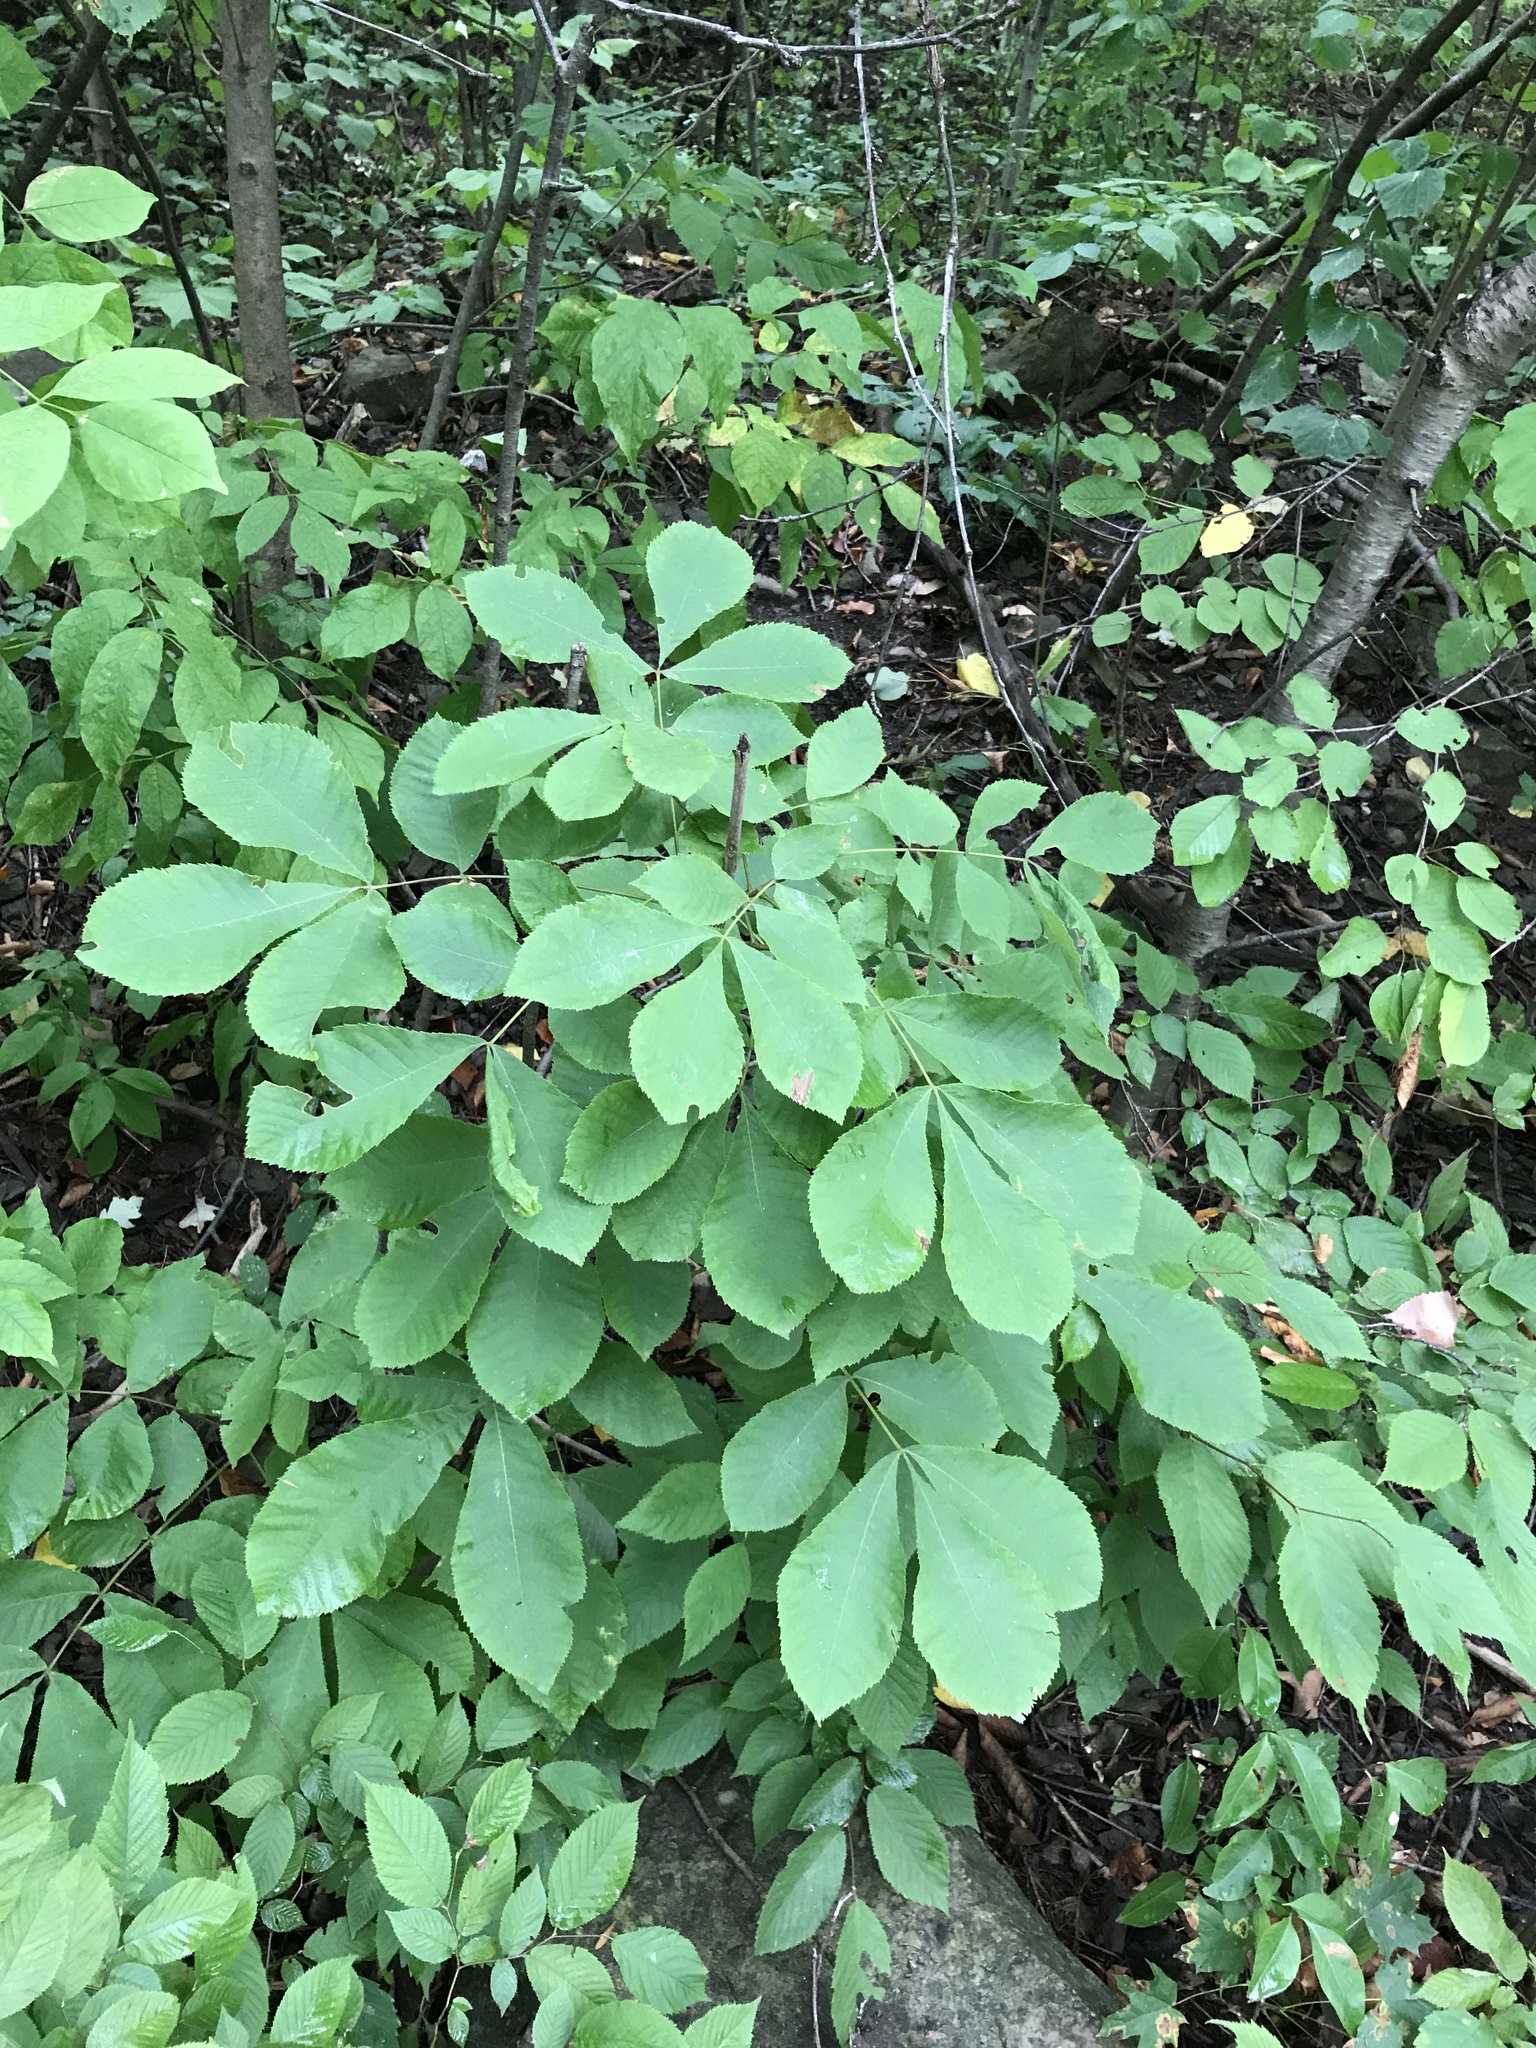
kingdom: Plantae
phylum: Tracheophyta
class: Magnoliopsida
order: Fagales
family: Juglandaceae
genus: Carya
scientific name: Carya cordiformis
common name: Bitternut hickory
